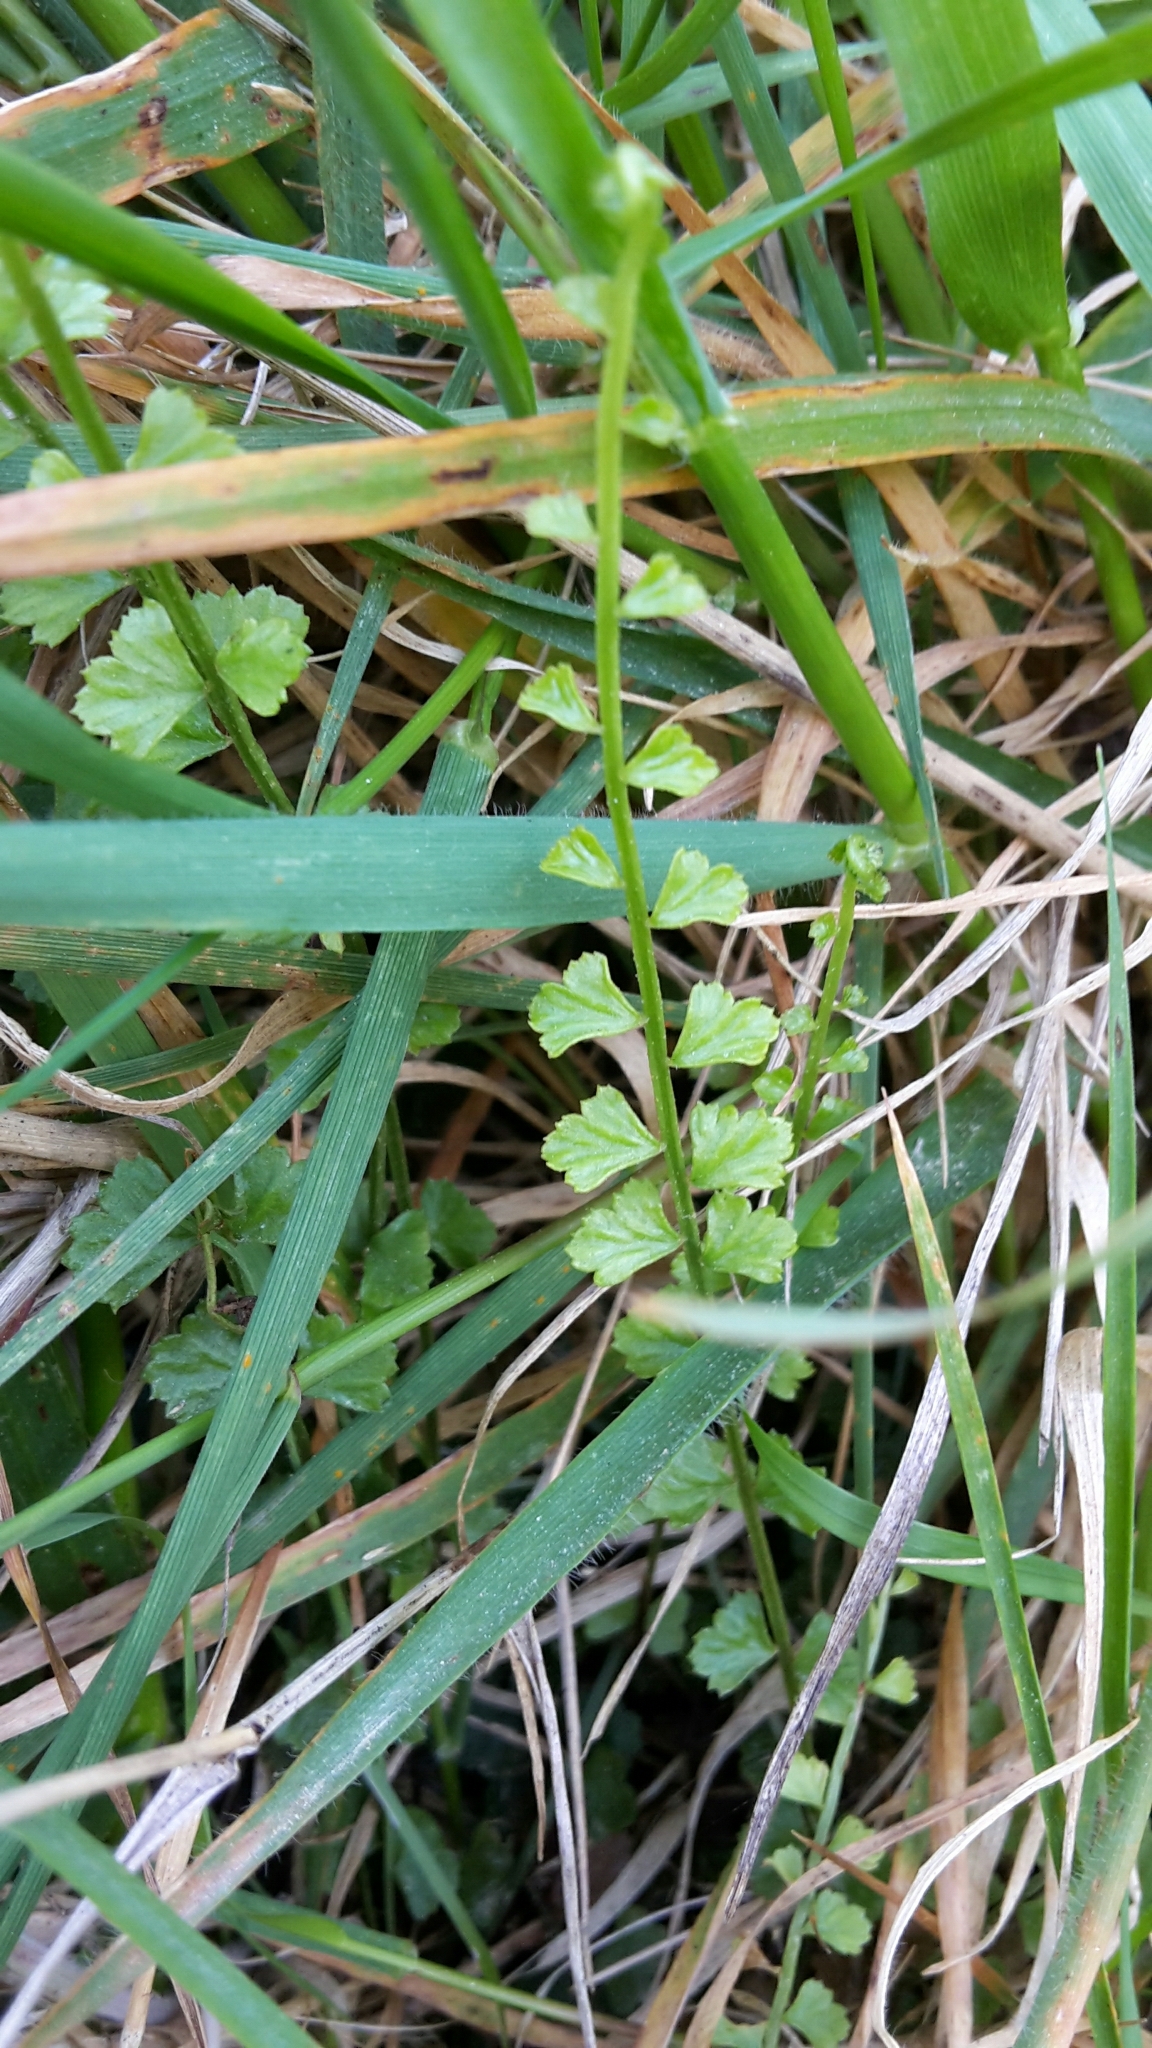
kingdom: Plantae
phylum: Tracheophyta
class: Polypodiopsida
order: Polypodiales
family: Aspleniaceae
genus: Asplenium
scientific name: Asplenium flabellifolium
